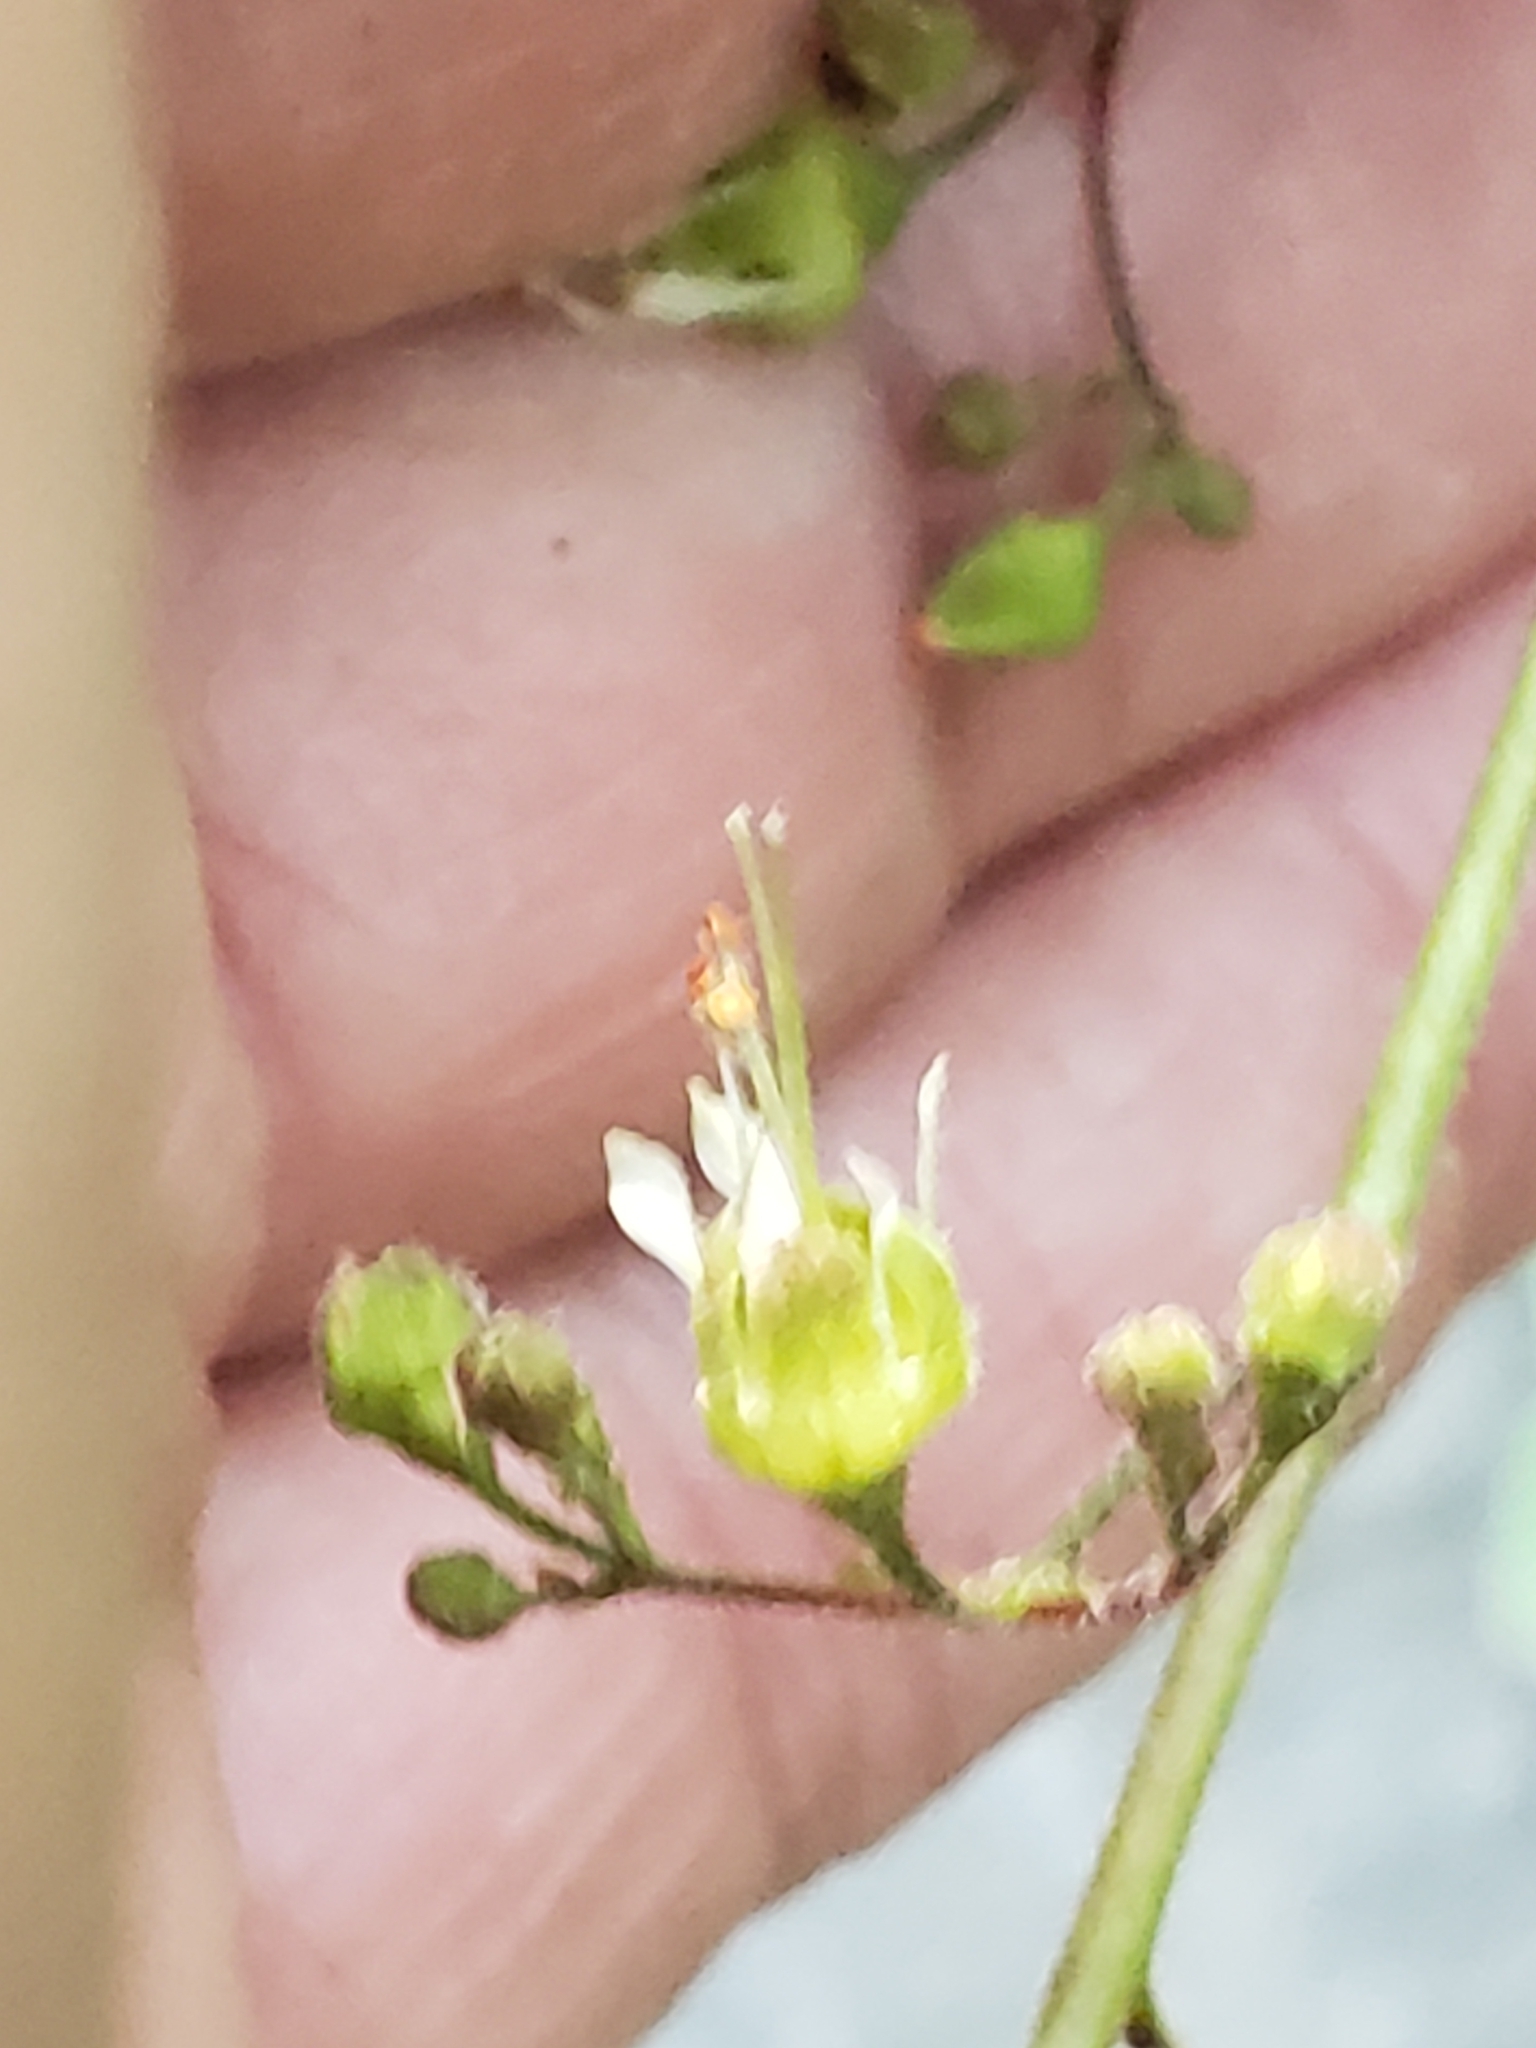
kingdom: Plantae
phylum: Tracheophyta
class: Magnoliopsida
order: Saxifragales
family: Saxifragaceae
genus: Heuchera
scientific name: Heuchera americana
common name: Alumroot
